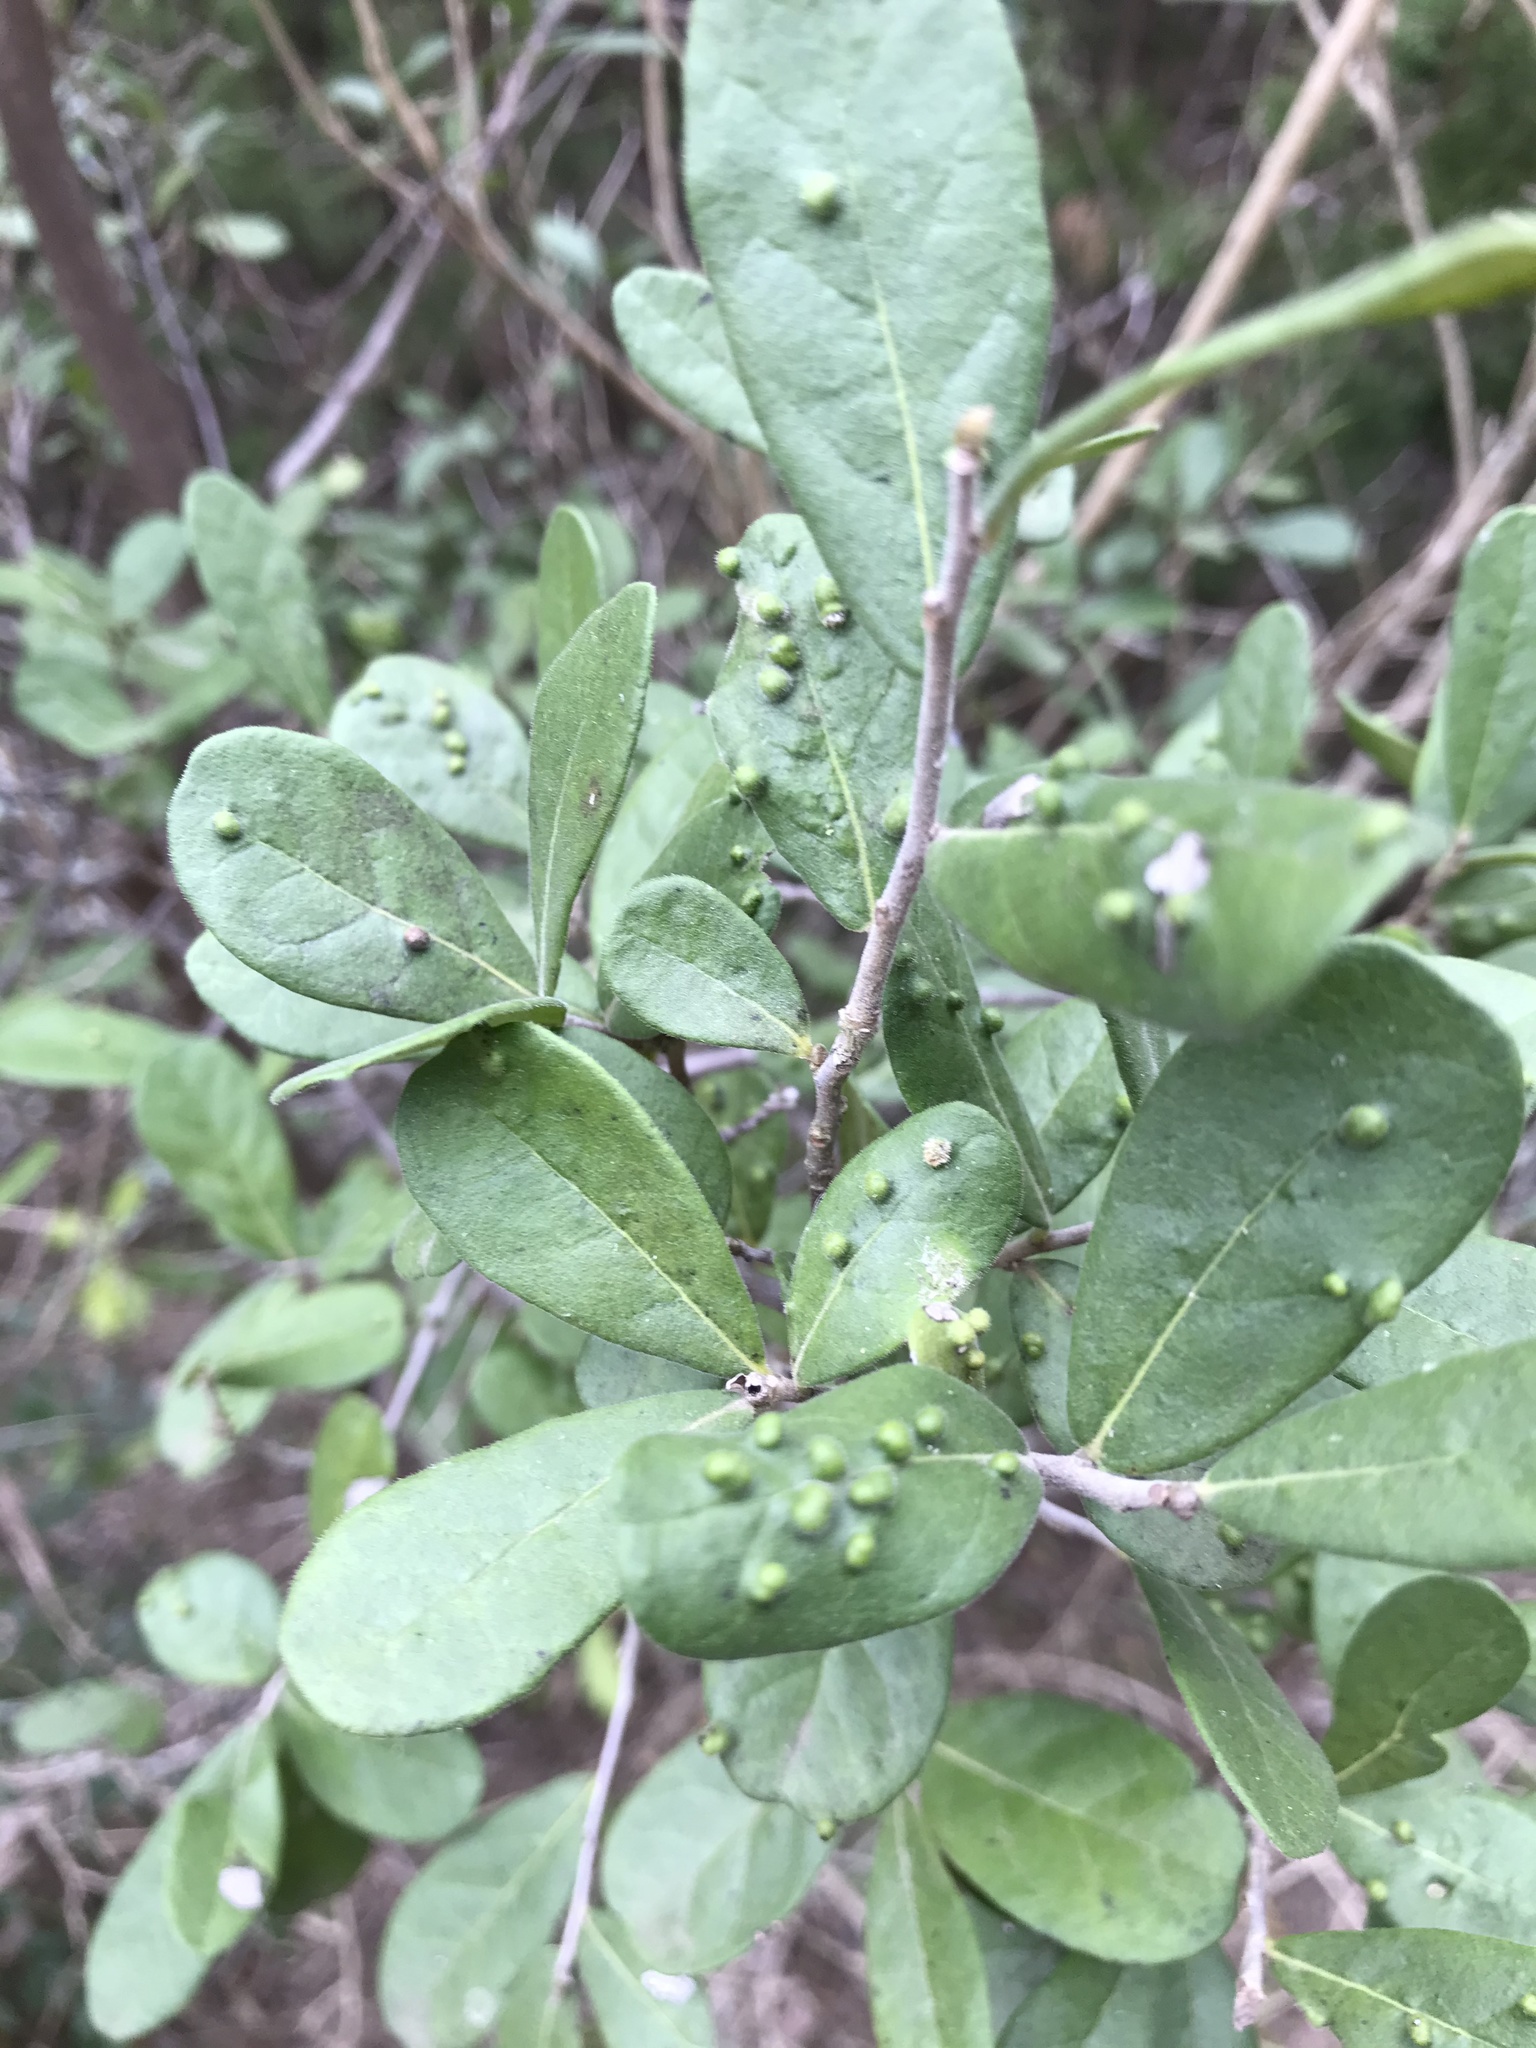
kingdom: Plantae
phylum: Tracheophyta
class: Magnoliopsida
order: Ericales
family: Ebenaceae
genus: Diospyros
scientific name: Diospyros texana
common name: Texas persimmon
